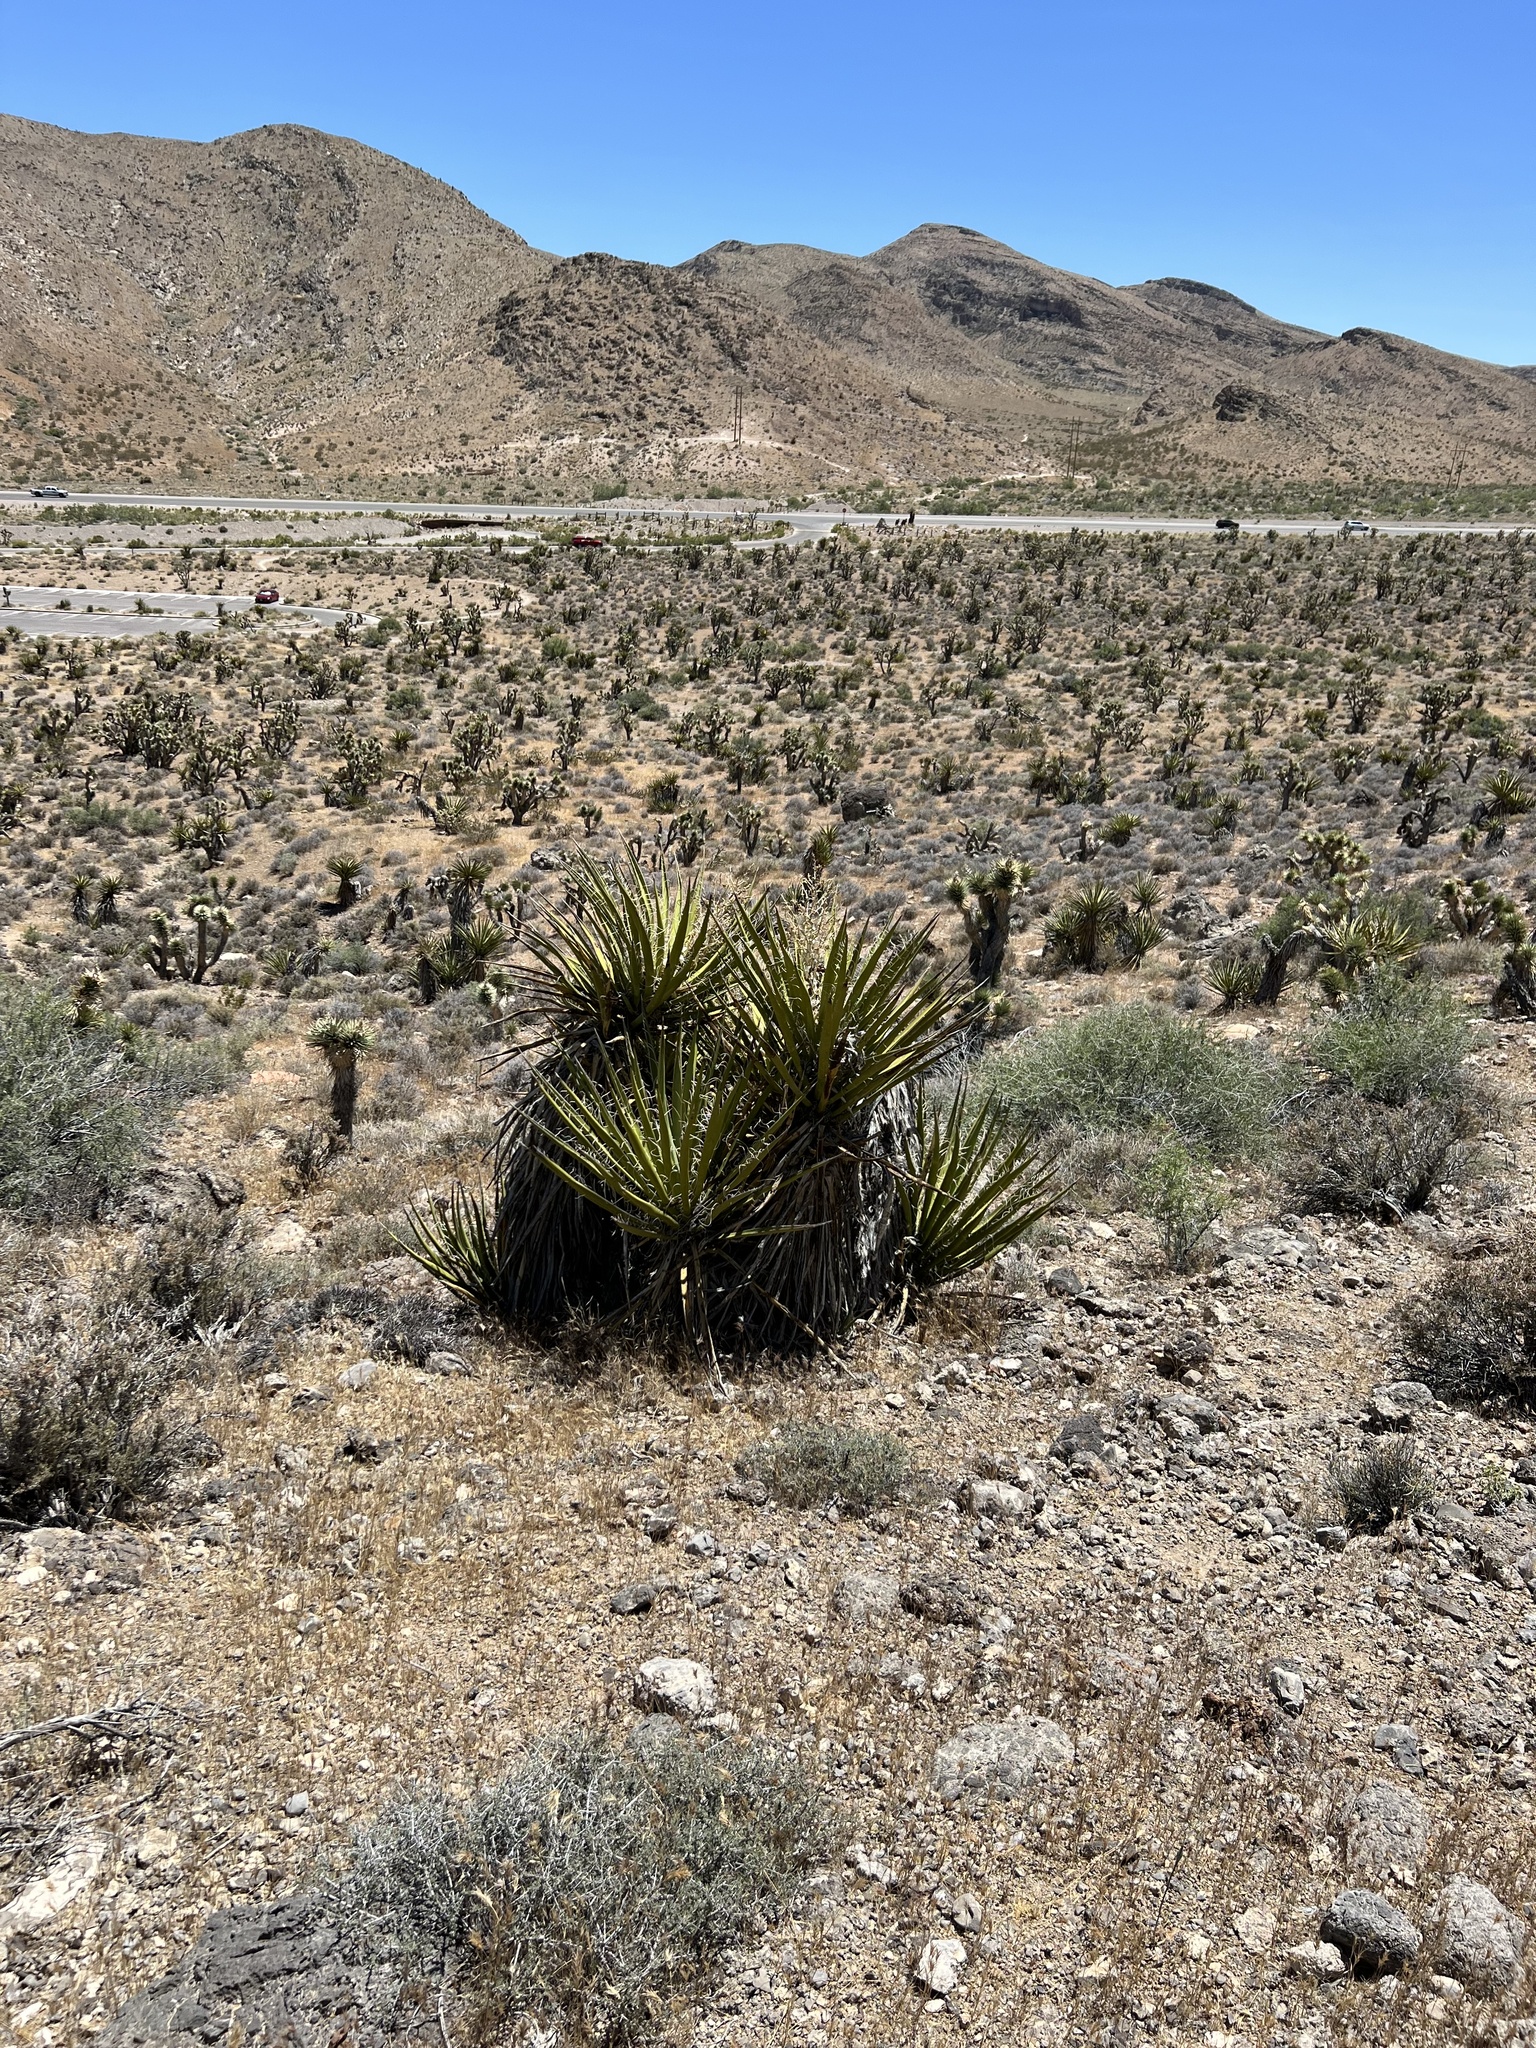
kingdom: Plantae
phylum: Tracheophyta
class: Liliopsida
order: Asparagales
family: Asparagaceae
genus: Yucca
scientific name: Yucca schidigera
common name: Mojave yucca
